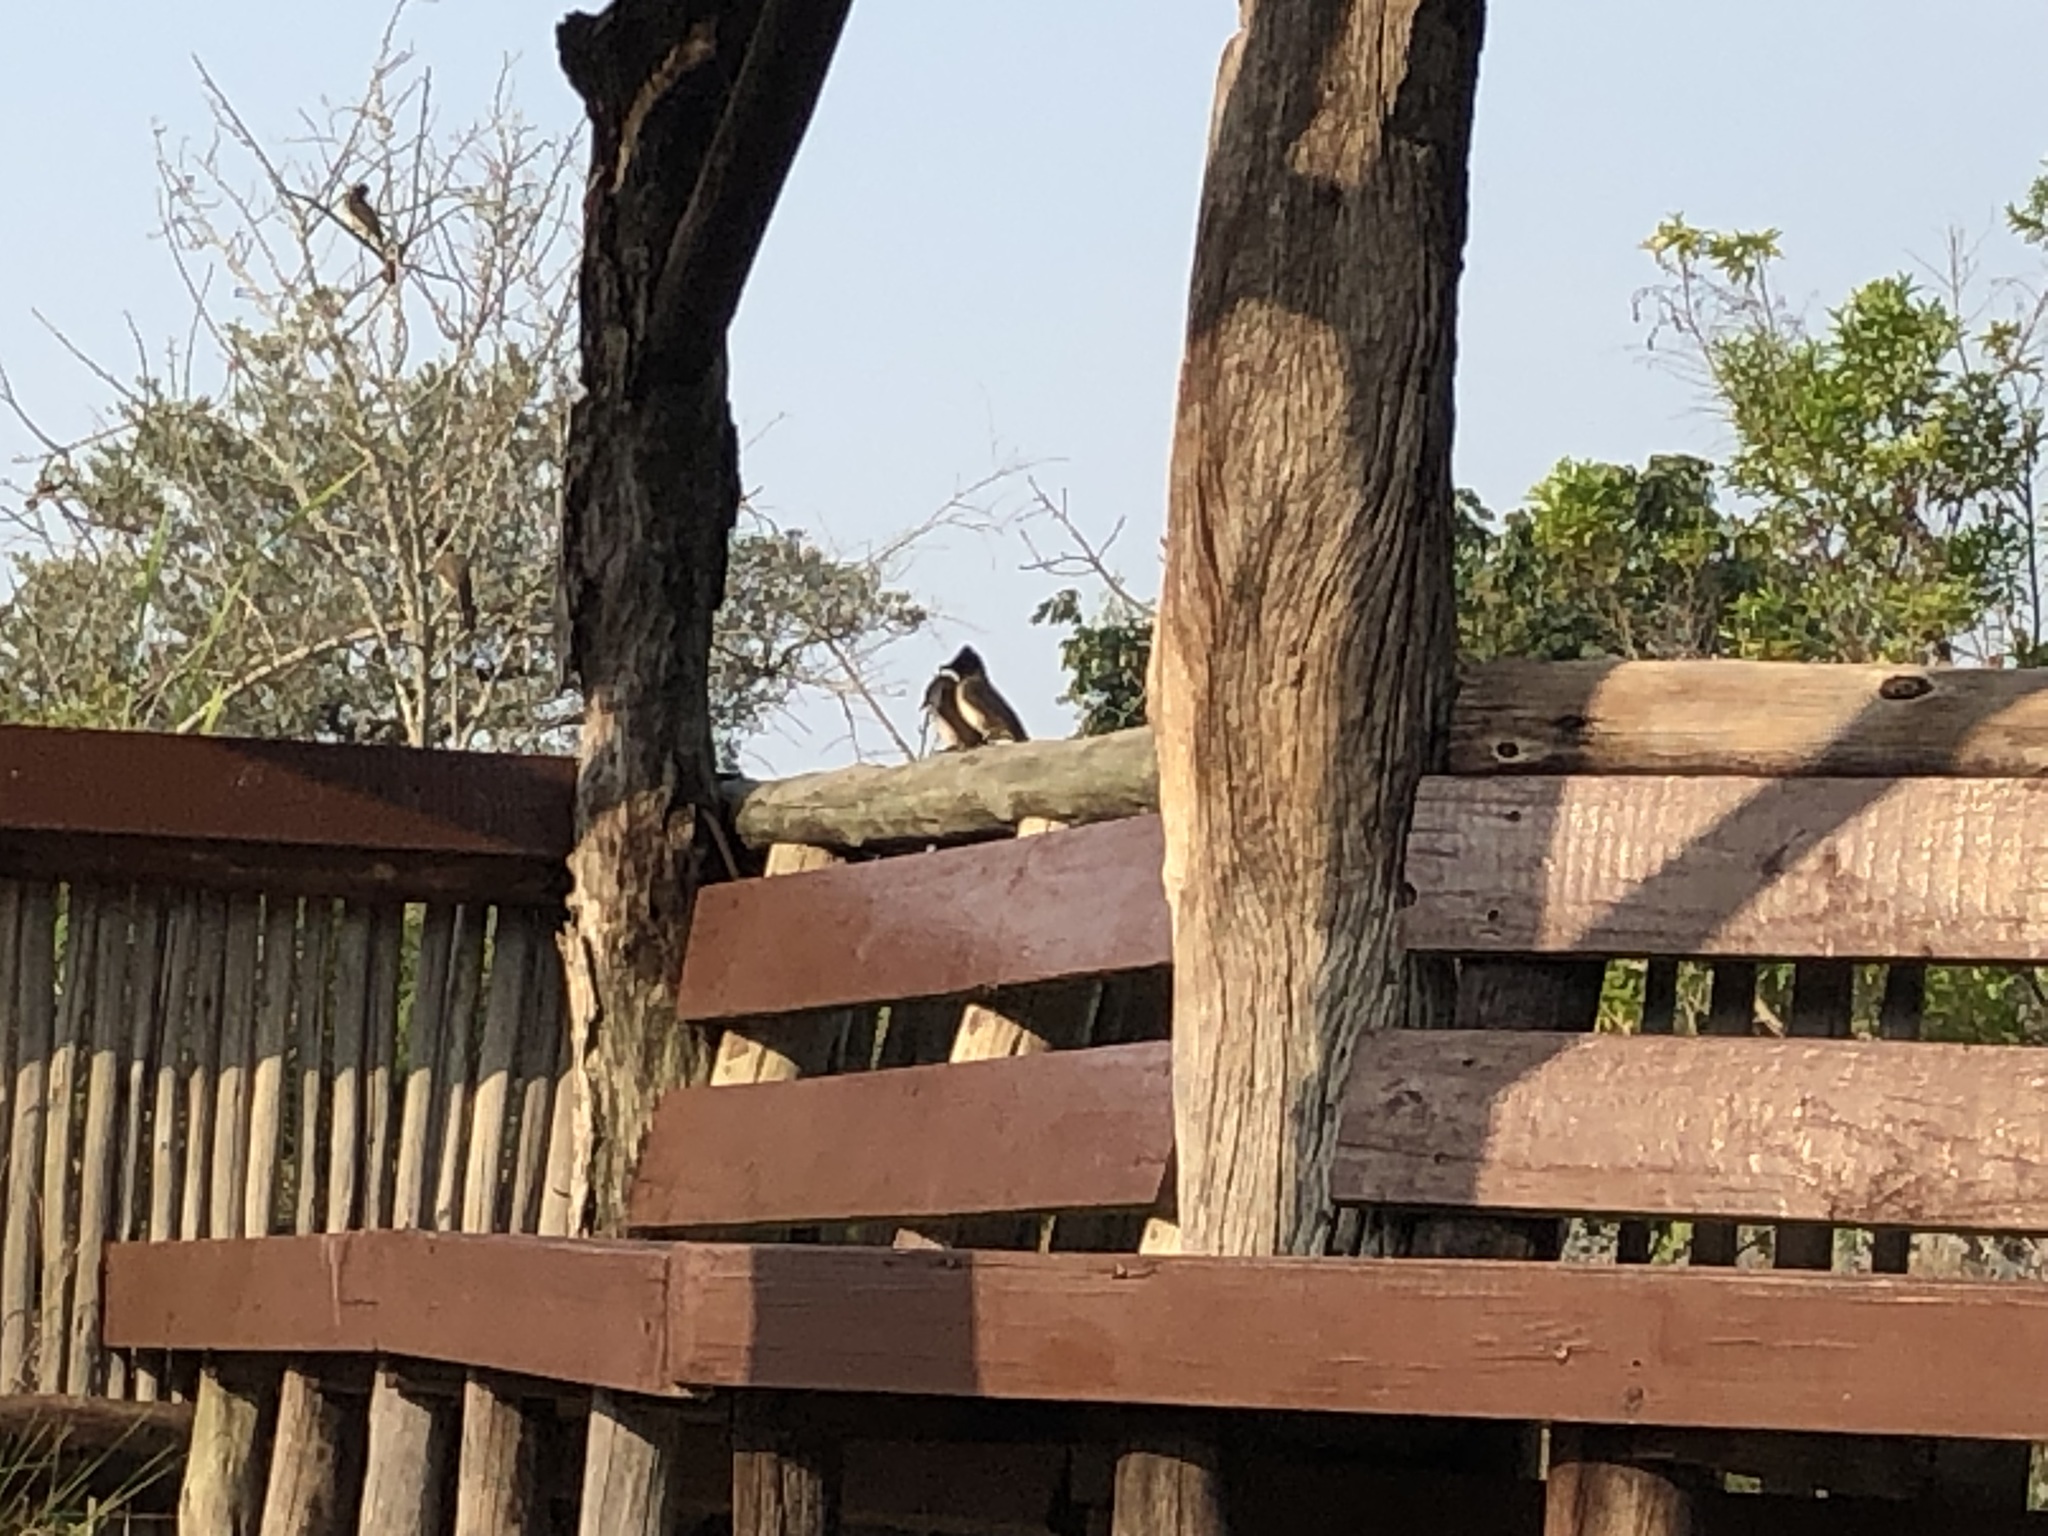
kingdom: Animalia
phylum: Chordata
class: Aves
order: Passeriformes
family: Pycnonotidae
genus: Pycnonotus
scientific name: Pycnonotus barbatus
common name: Common bulbul
